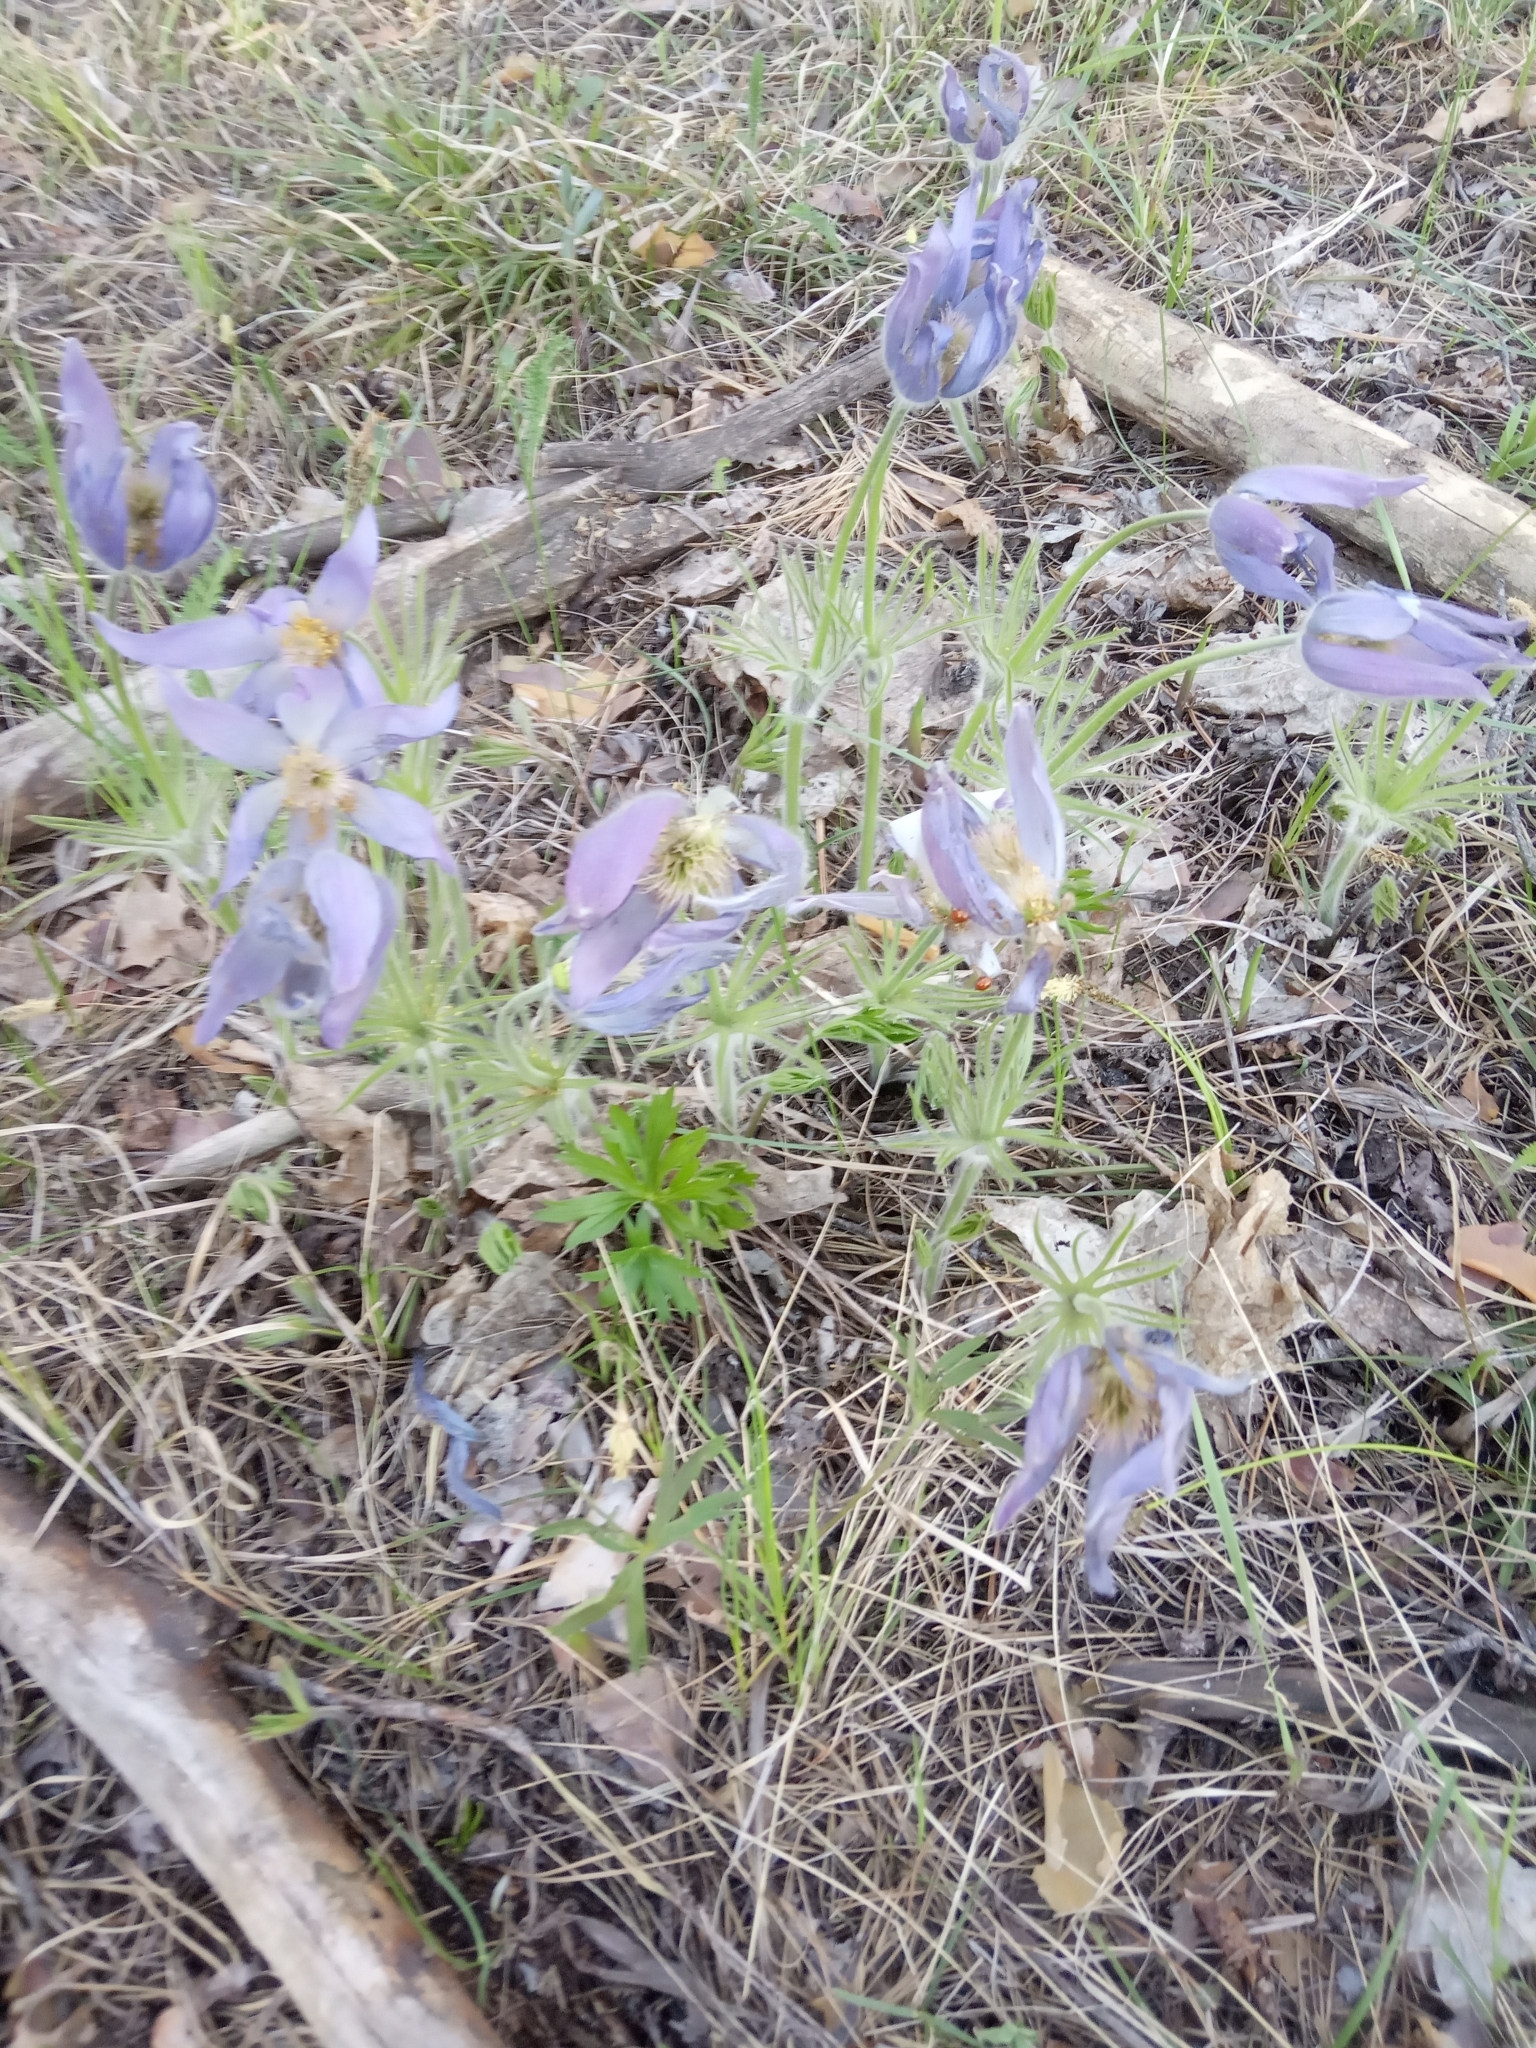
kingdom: Plantae
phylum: Tracheophyta
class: Magnoliopsida
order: Ranunculales
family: Ranunculaceae
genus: Pulsatilla
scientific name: Pulsatilla patens
